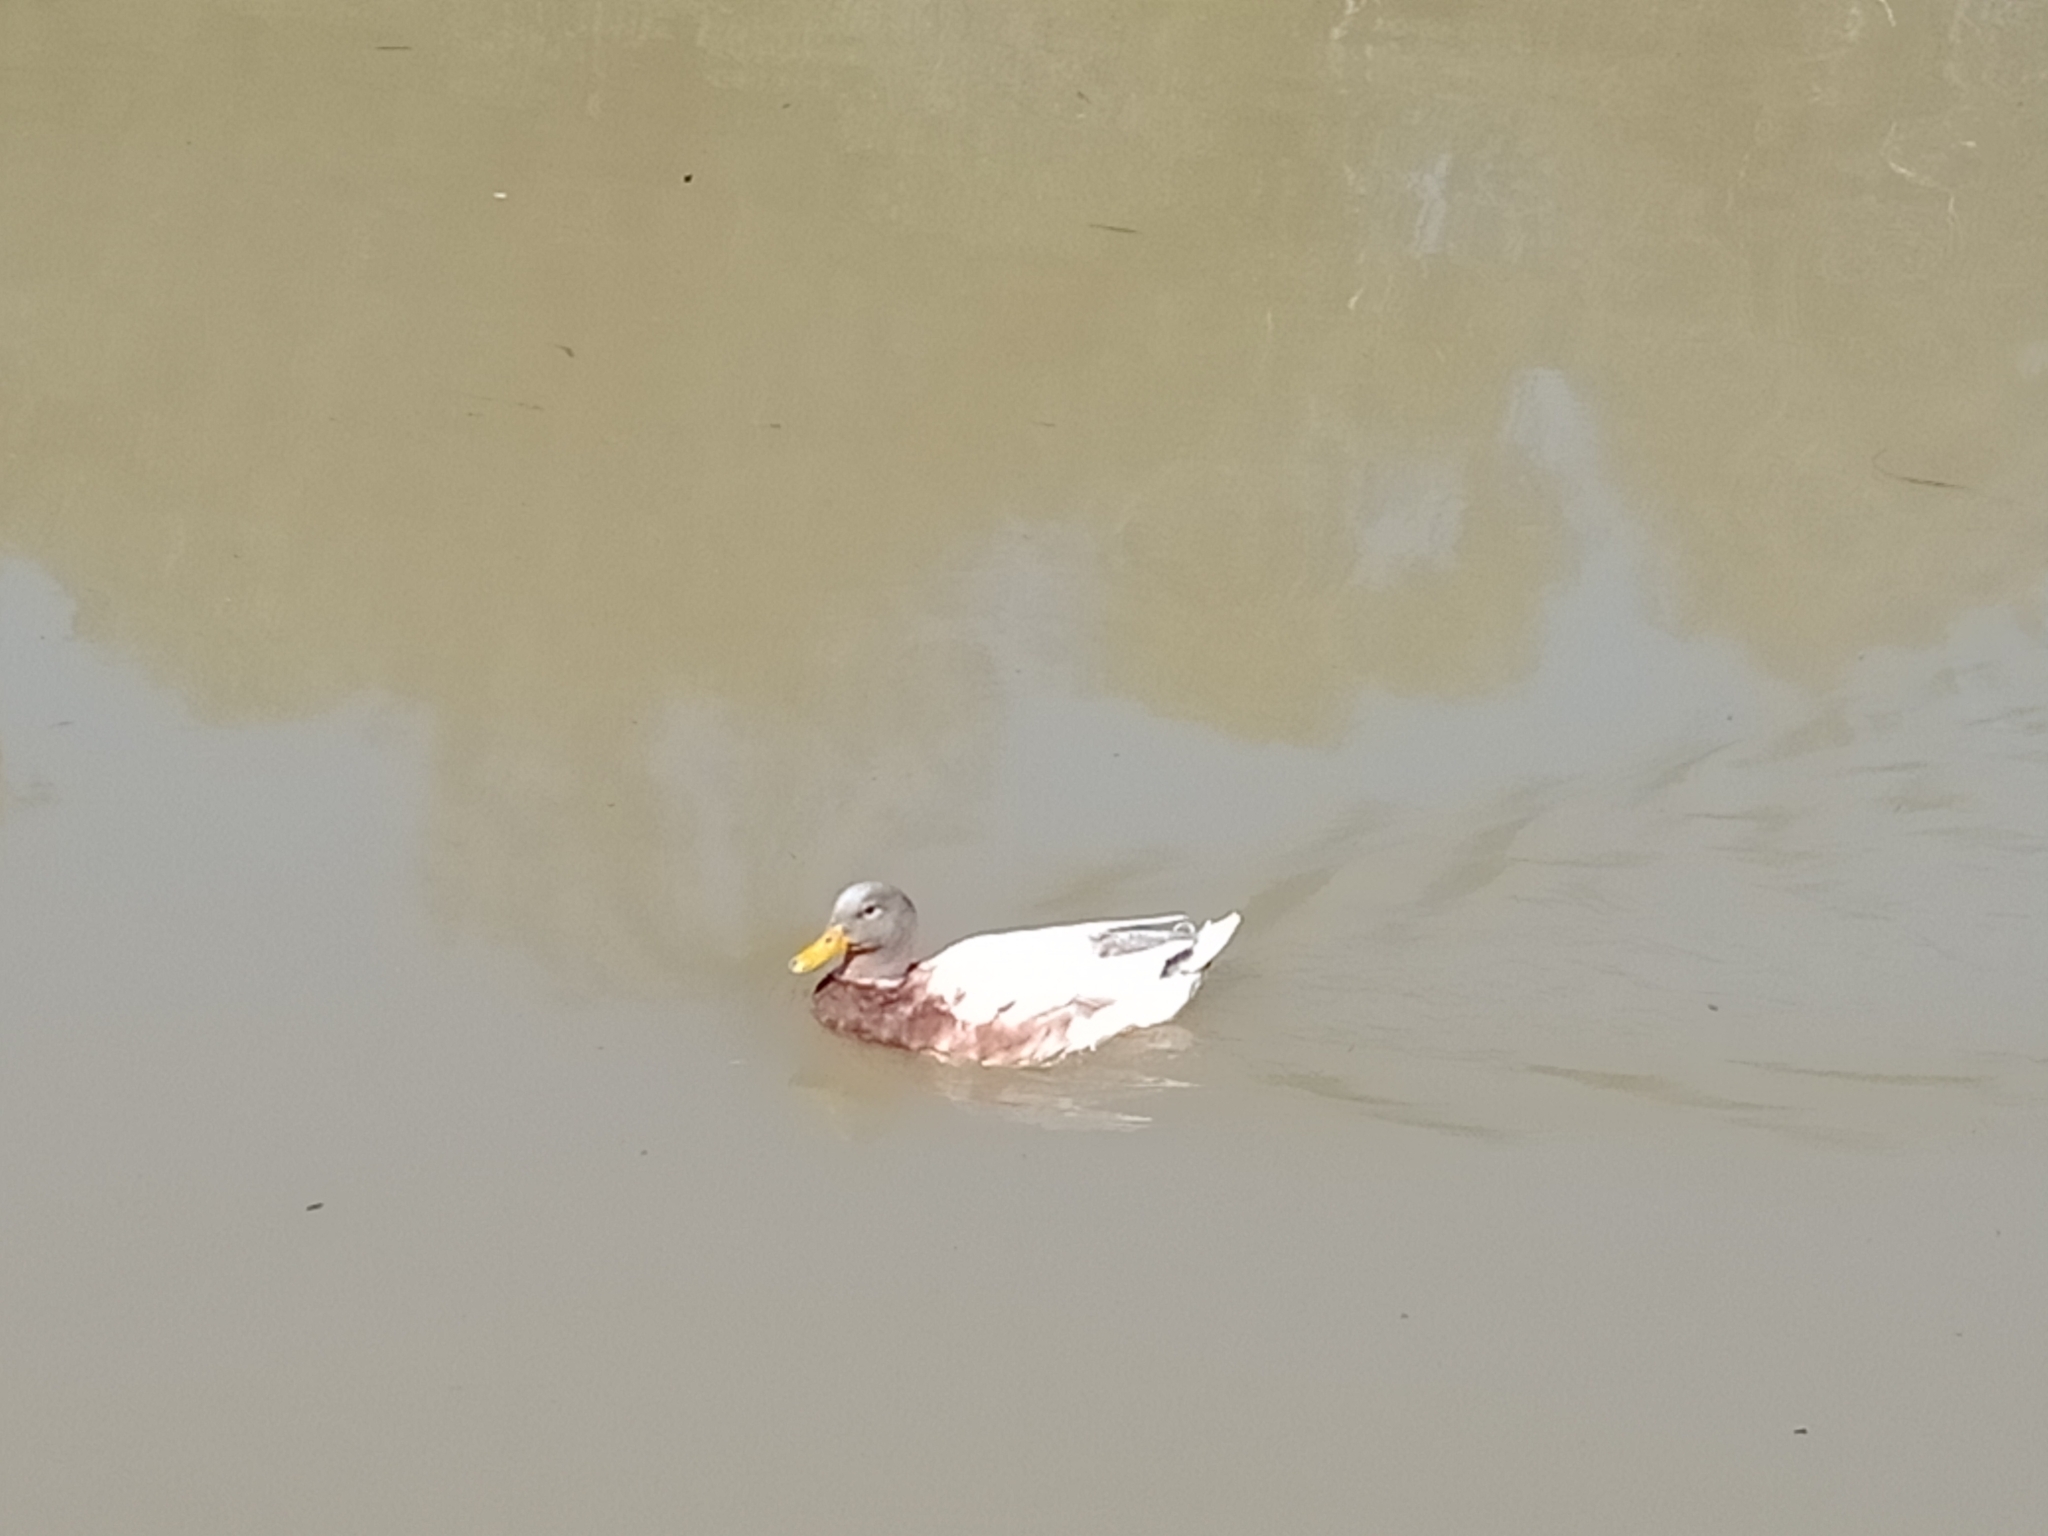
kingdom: Animalia
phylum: Chordata
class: Aves
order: Anseriformes
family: Anatidae
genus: Anas
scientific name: Anas platyrhynchos
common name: Mallard
